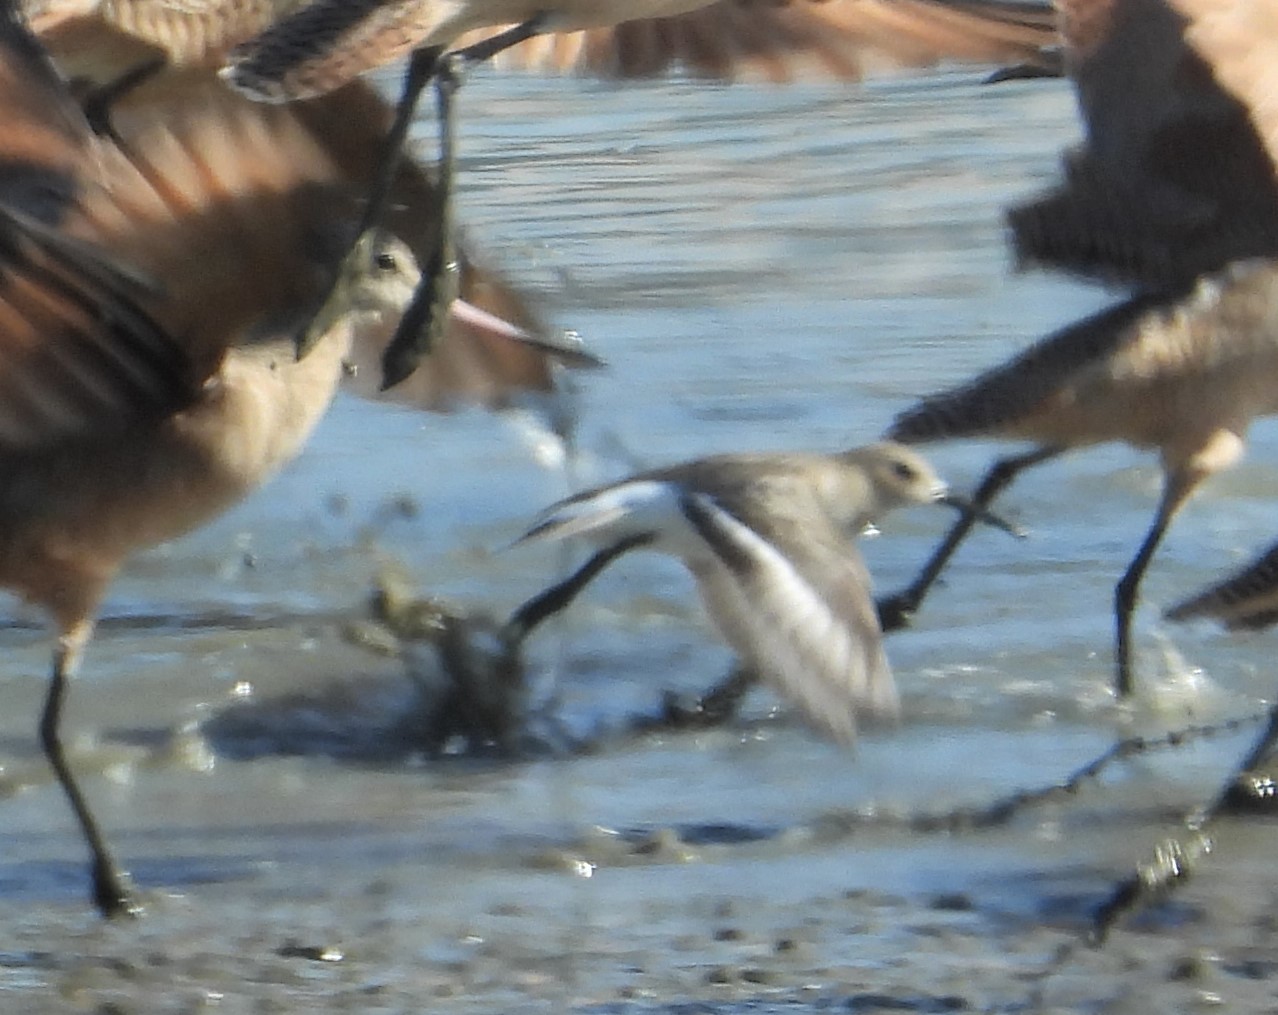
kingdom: Animalia
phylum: Chordata
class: Aves
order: Charadriiformes
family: Scolopacidae
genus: Calidris
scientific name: Calidris alpina
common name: Dunlin
